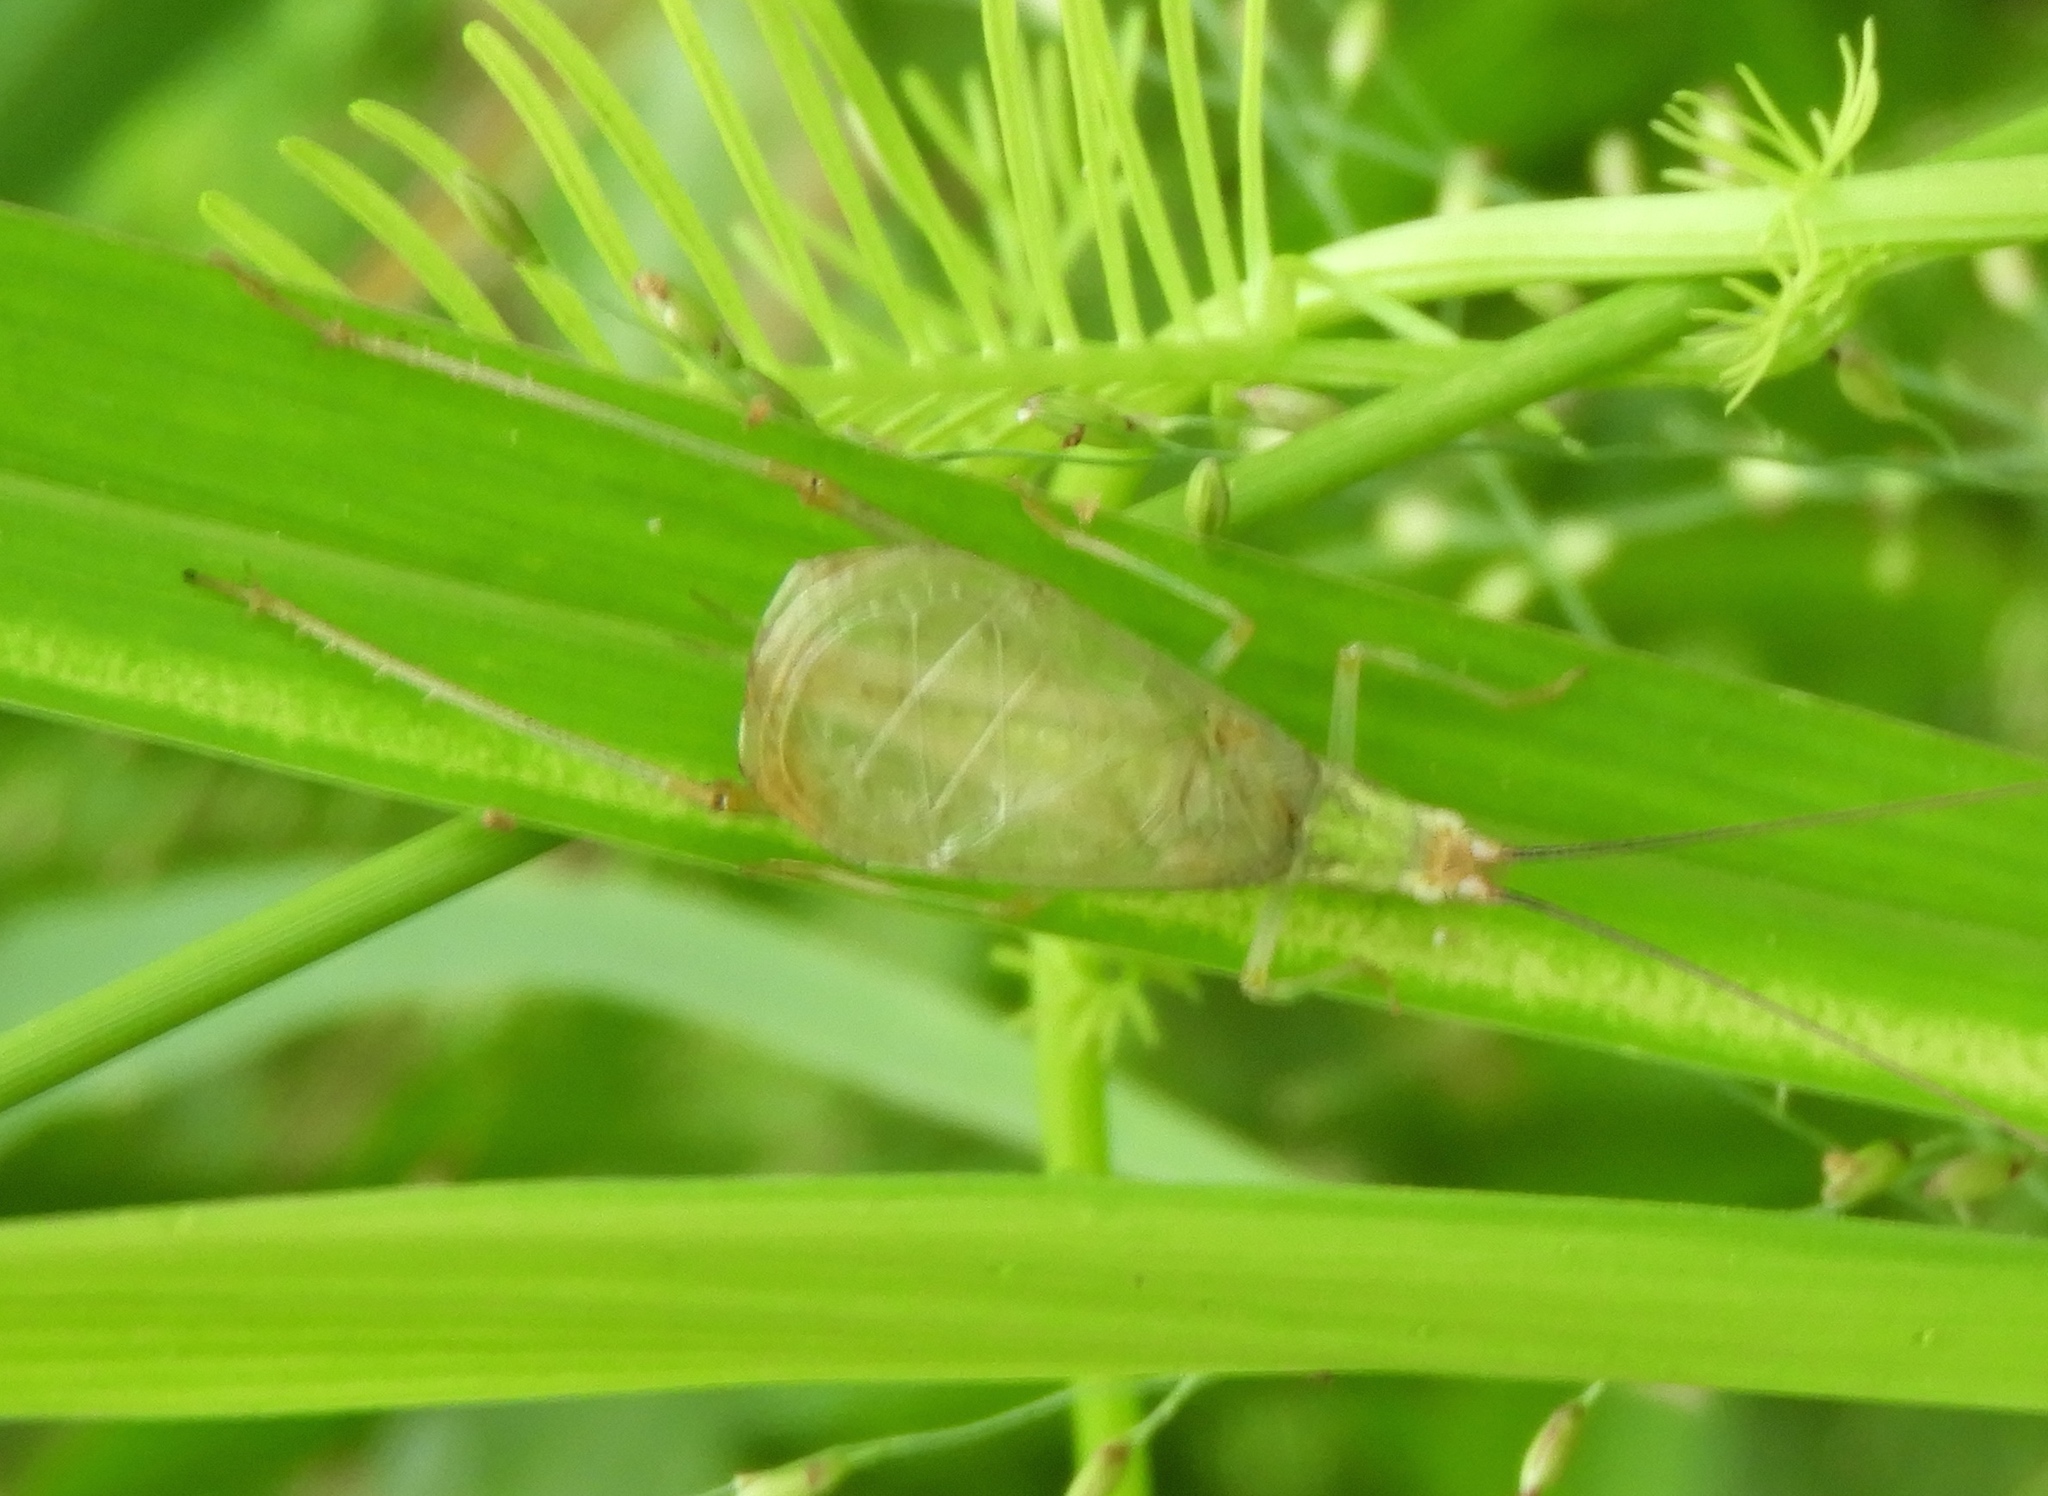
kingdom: Animalia
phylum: Arthropoda
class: Insecta
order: Orthoptera
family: Gryllidae
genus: Oecanthus
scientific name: Oecanthus
